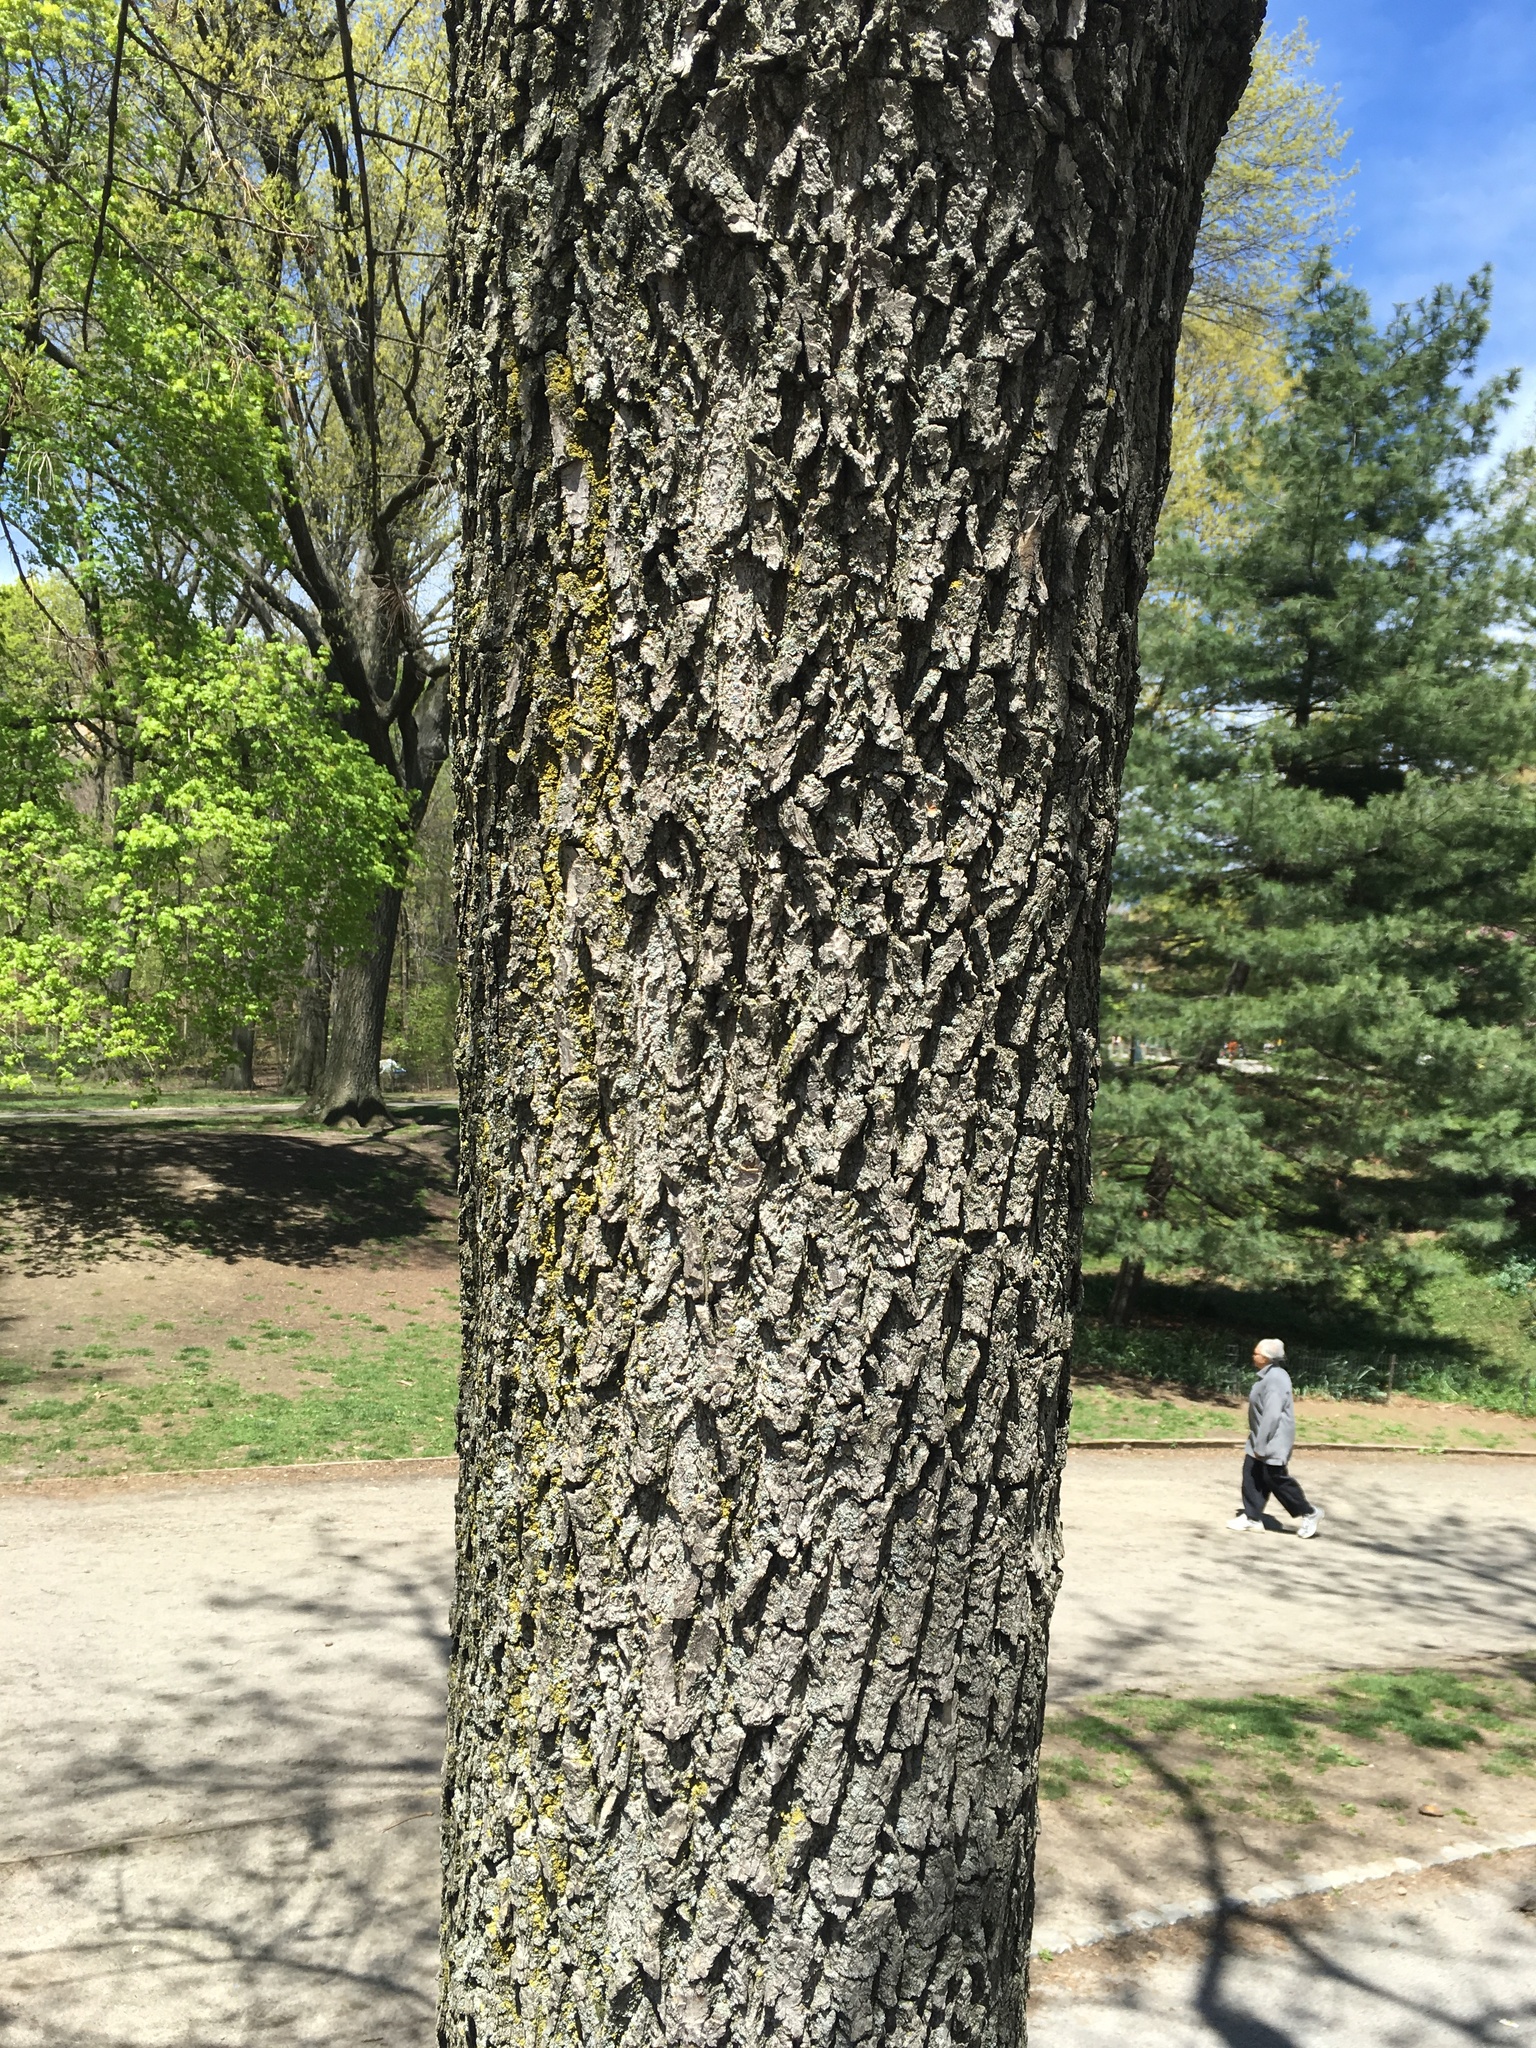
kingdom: Plantae
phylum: Tracheophyta
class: Magnoliopsida
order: Lamiales
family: Oleaceae
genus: Fraxinus
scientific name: Fraxinus profunda
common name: Pumpkin ash
